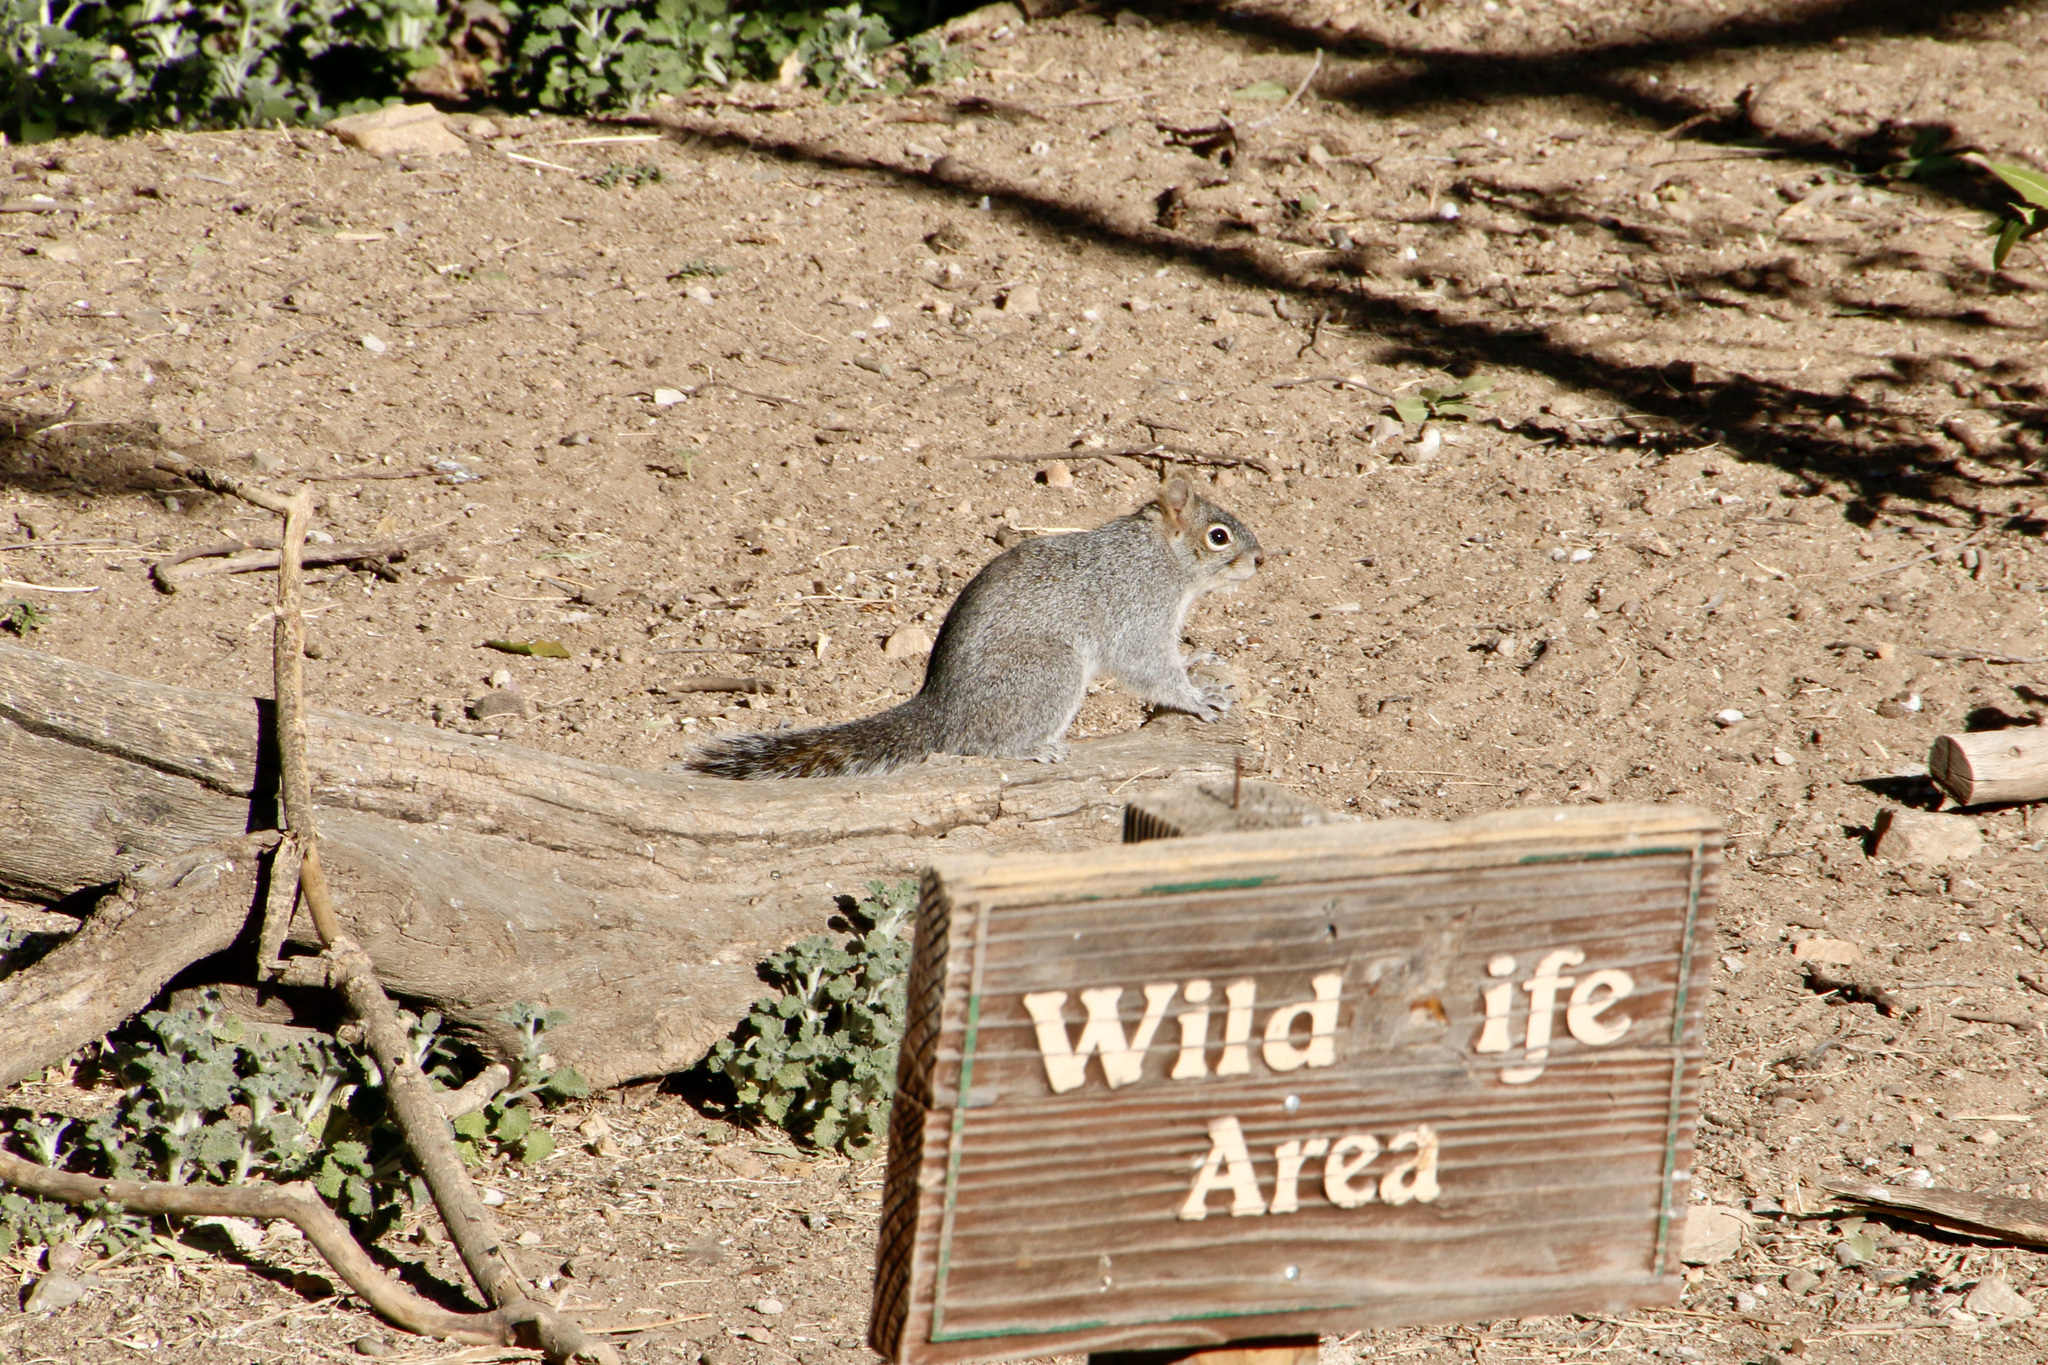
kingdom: Animalia
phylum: Chordata
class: Mammalia
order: Rodentia
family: Sciuridae
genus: Sciurus
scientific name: Sciurus arizonensis
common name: Arizona gray squirrel
